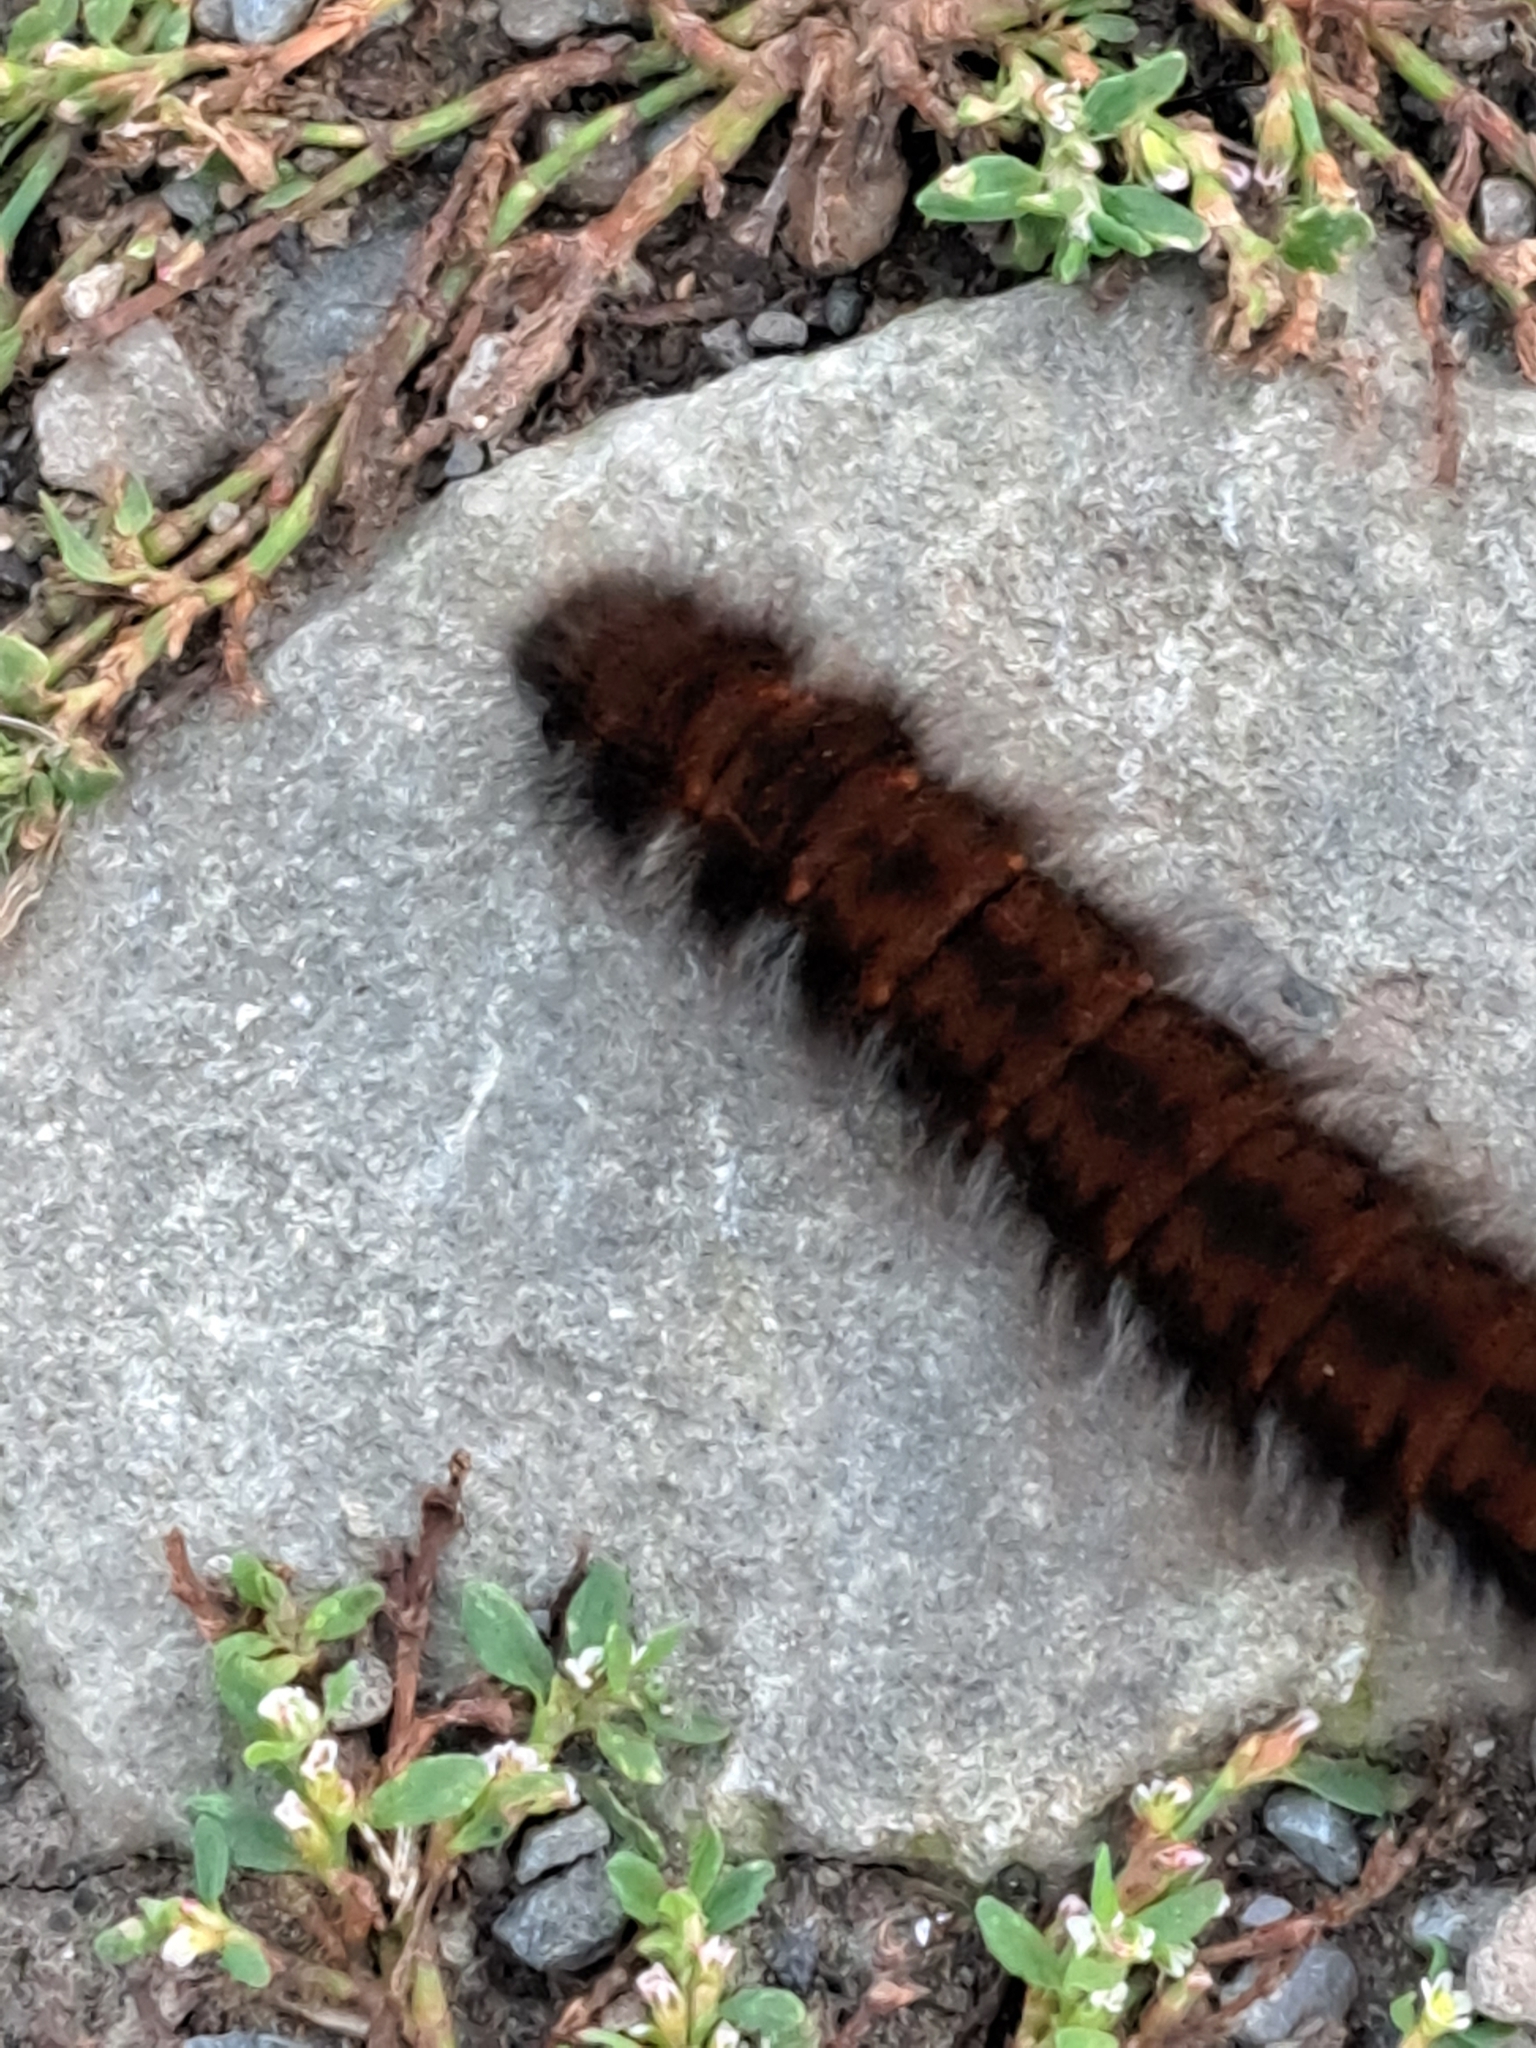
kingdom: Animalia
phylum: Arthropoda
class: Insecta
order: Lepidoptera
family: Lasiocampidae
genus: Macrothylacia
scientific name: Macrothylacia rubi
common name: Fox moth
